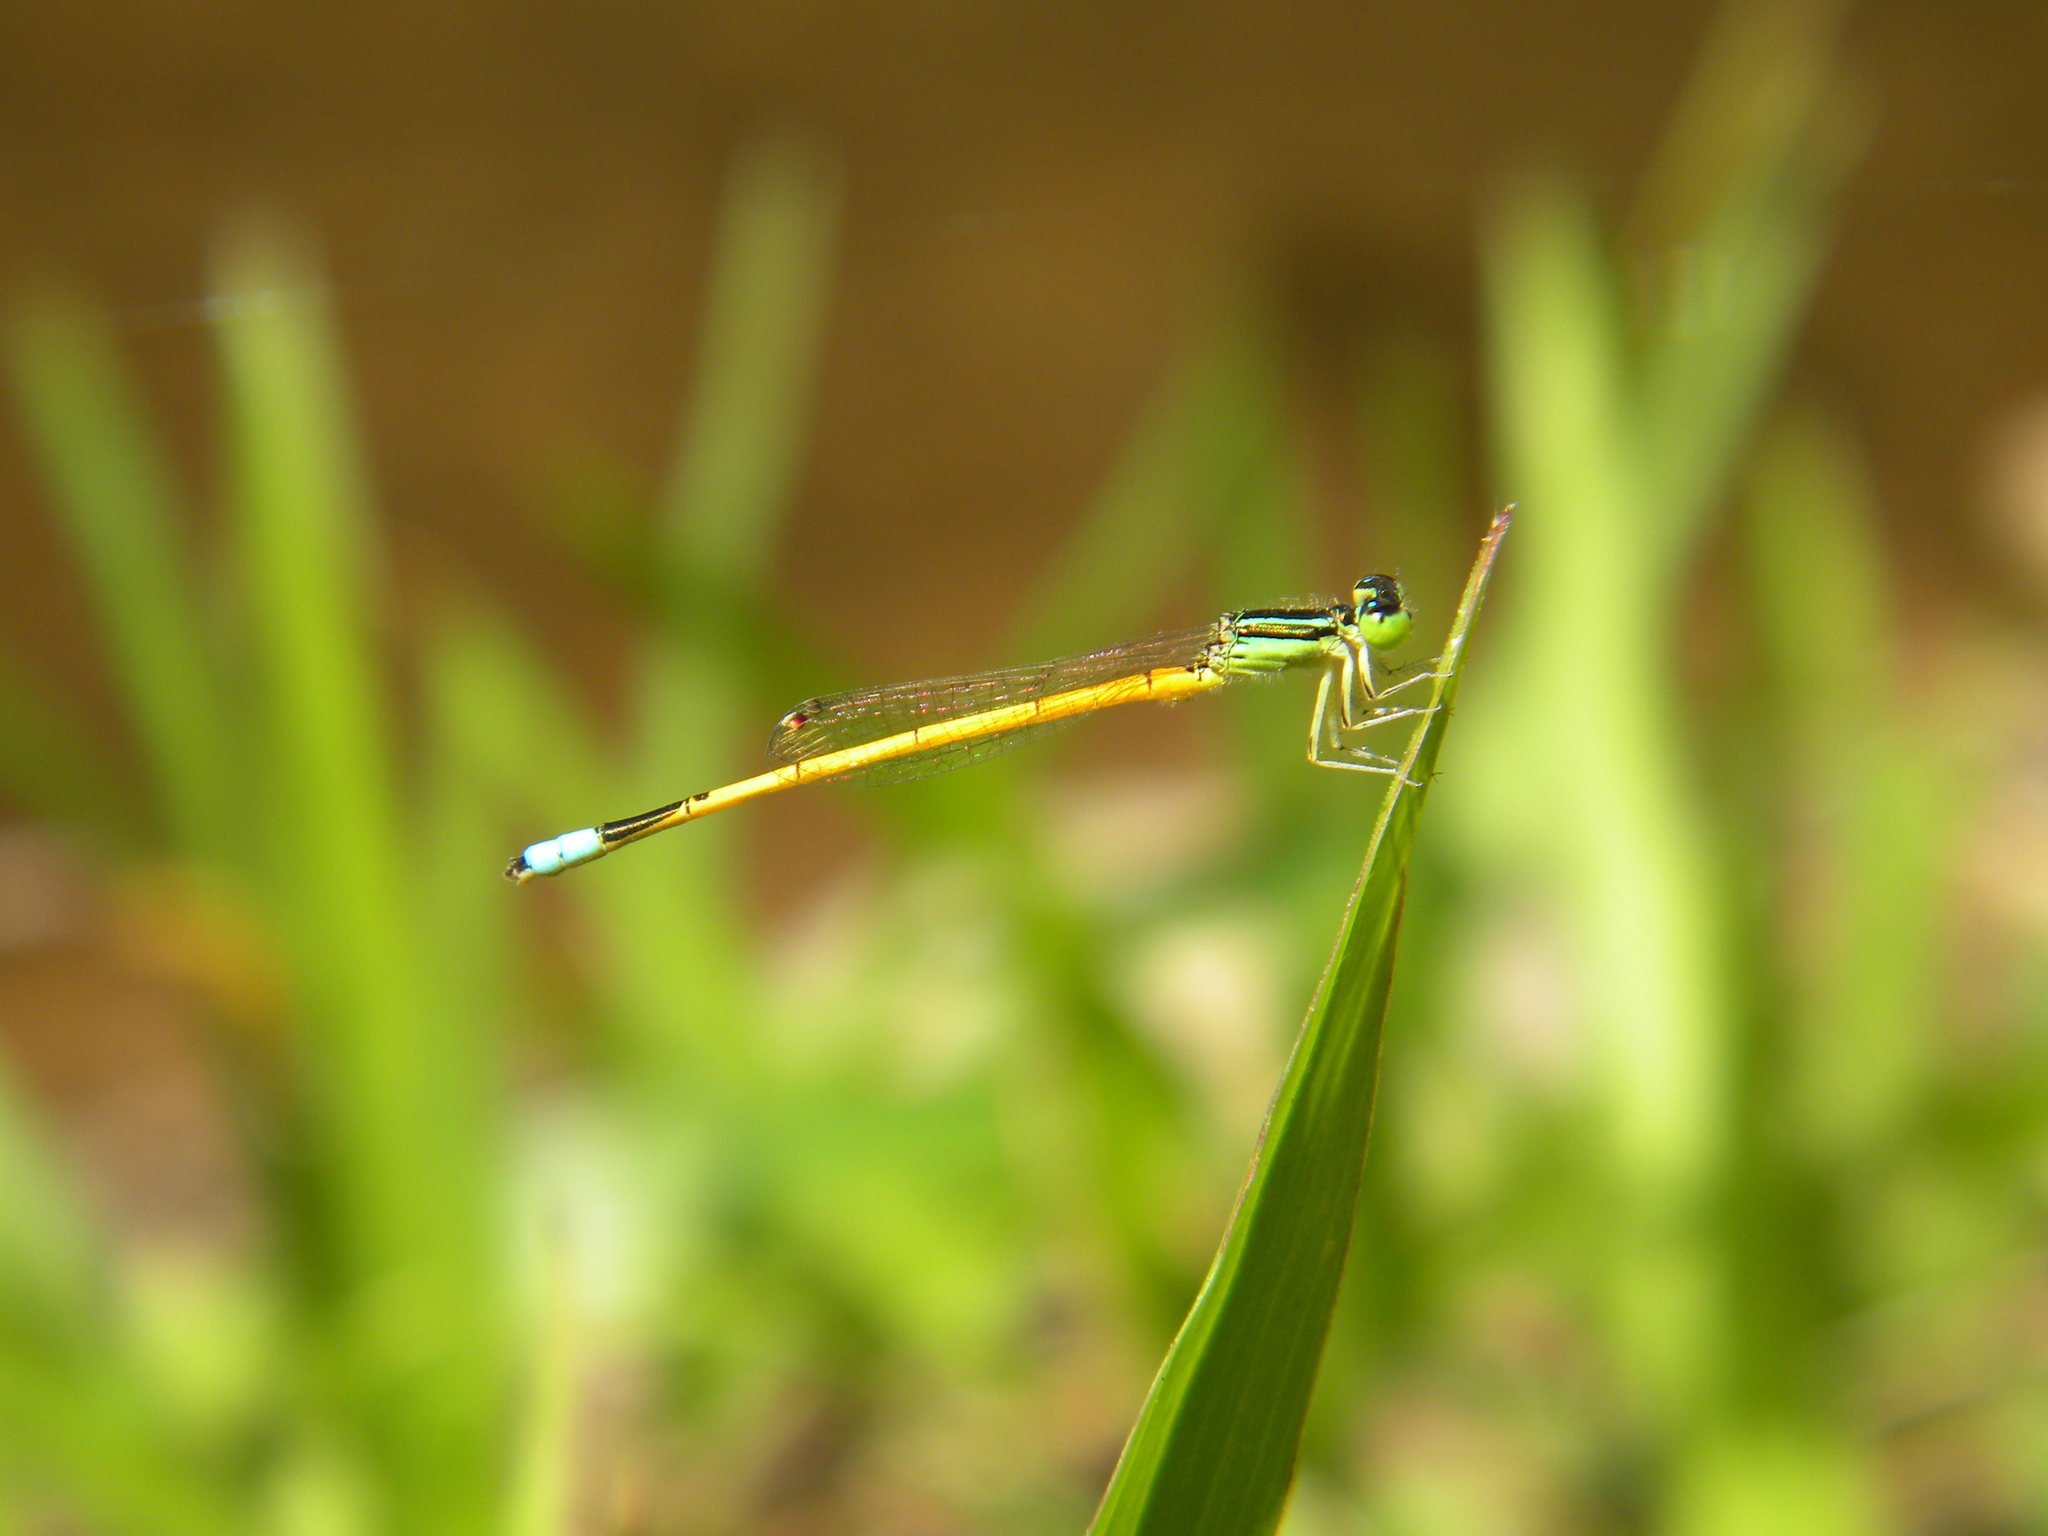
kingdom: Animalia
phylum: Arthropoda
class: Insecta
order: Odonata
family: Coenagrionidae
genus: Ischnura
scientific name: Ischnura rubilio
